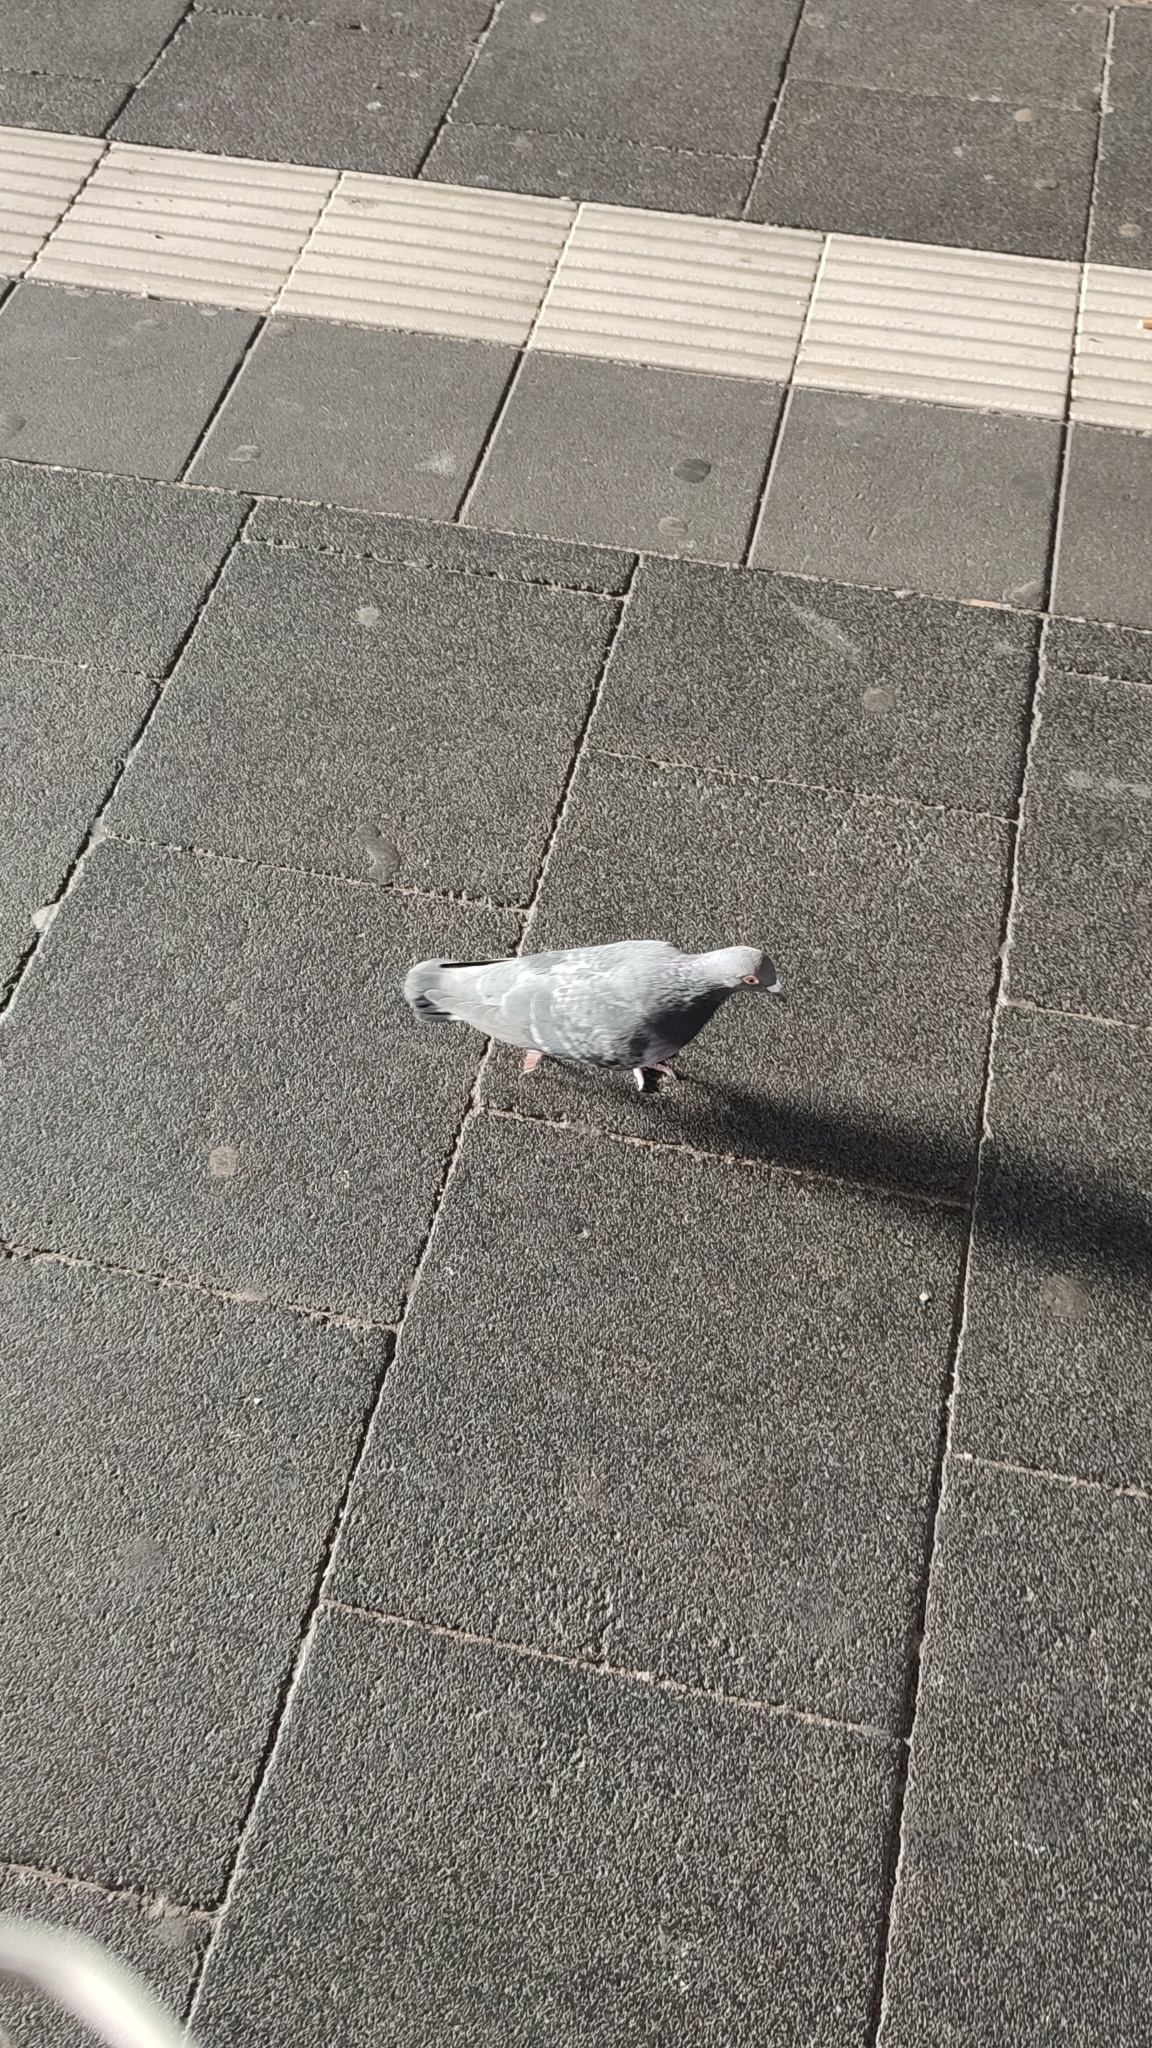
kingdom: Animalia
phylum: Chordata
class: Aves
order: Columbiformes
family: Columbidae
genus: Columba
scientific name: Columba livia
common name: Rock pigeon
